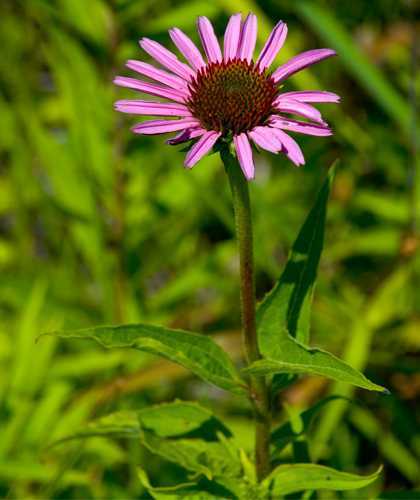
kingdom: Plantae
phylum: Tracheophyta
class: Magnoliopsida
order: Asterales
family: Asteraceae
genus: Echinacea
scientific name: Echinacea purpurea
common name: Broad-leaved purple coneflower
